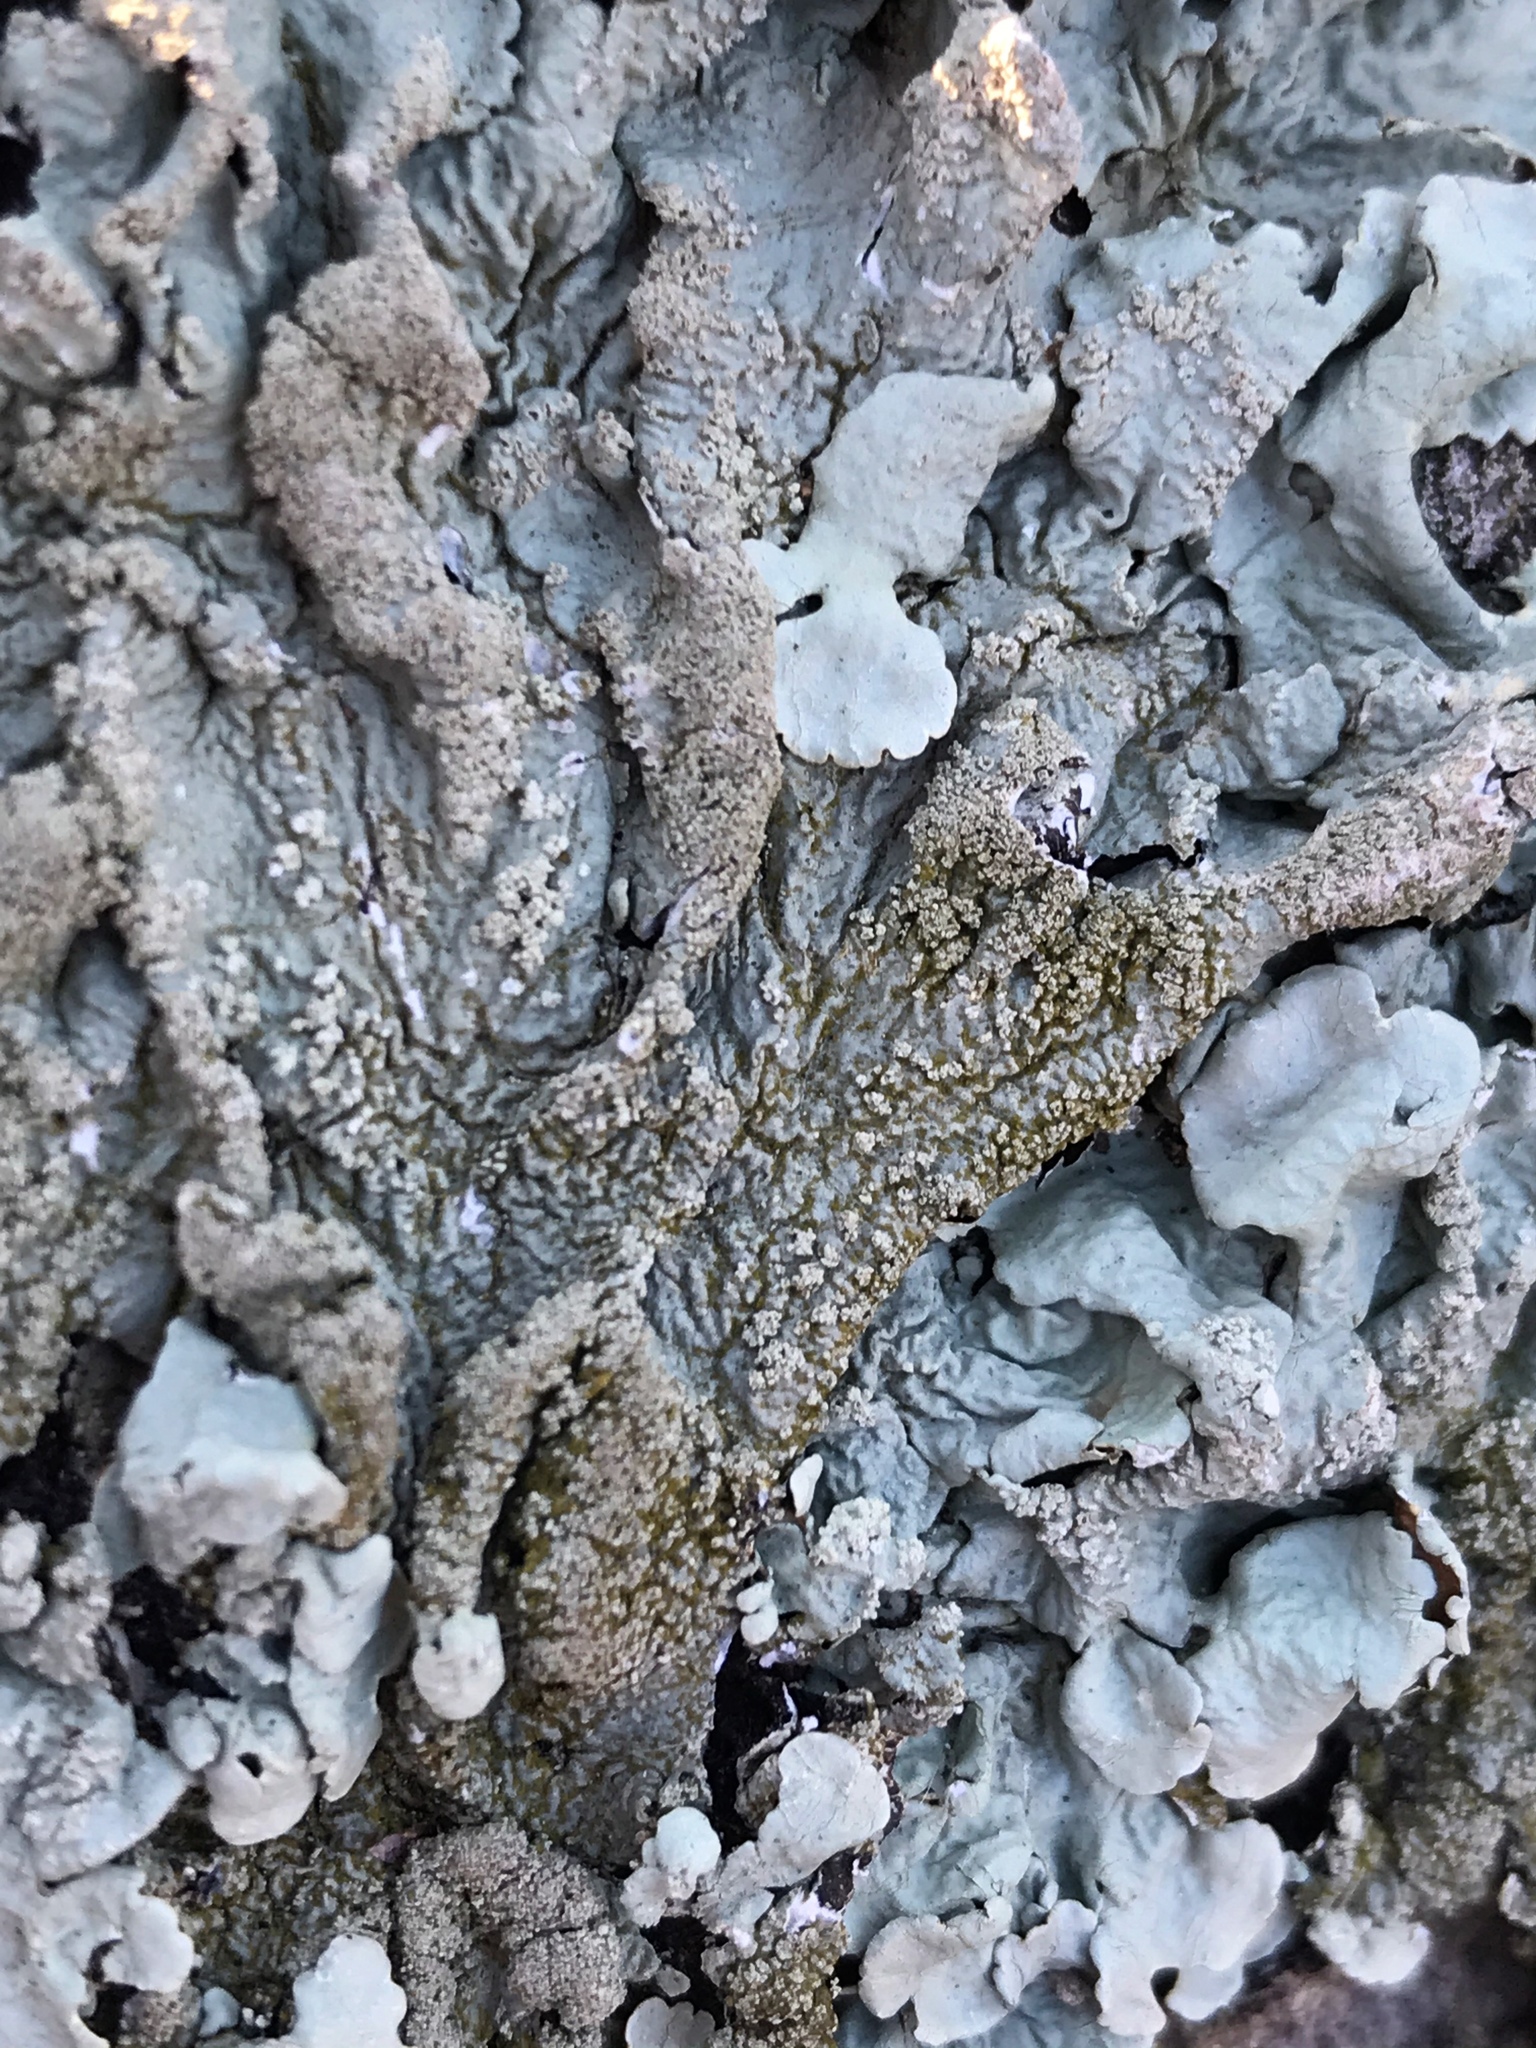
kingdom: Fungi
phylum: Ascomycota
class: Lecanoromycetes
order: Lecanorales
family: Parmeliaceae
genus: Flavoparmelia
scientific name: Flavoparmelia caperata
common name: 40-mile per hour lichen
